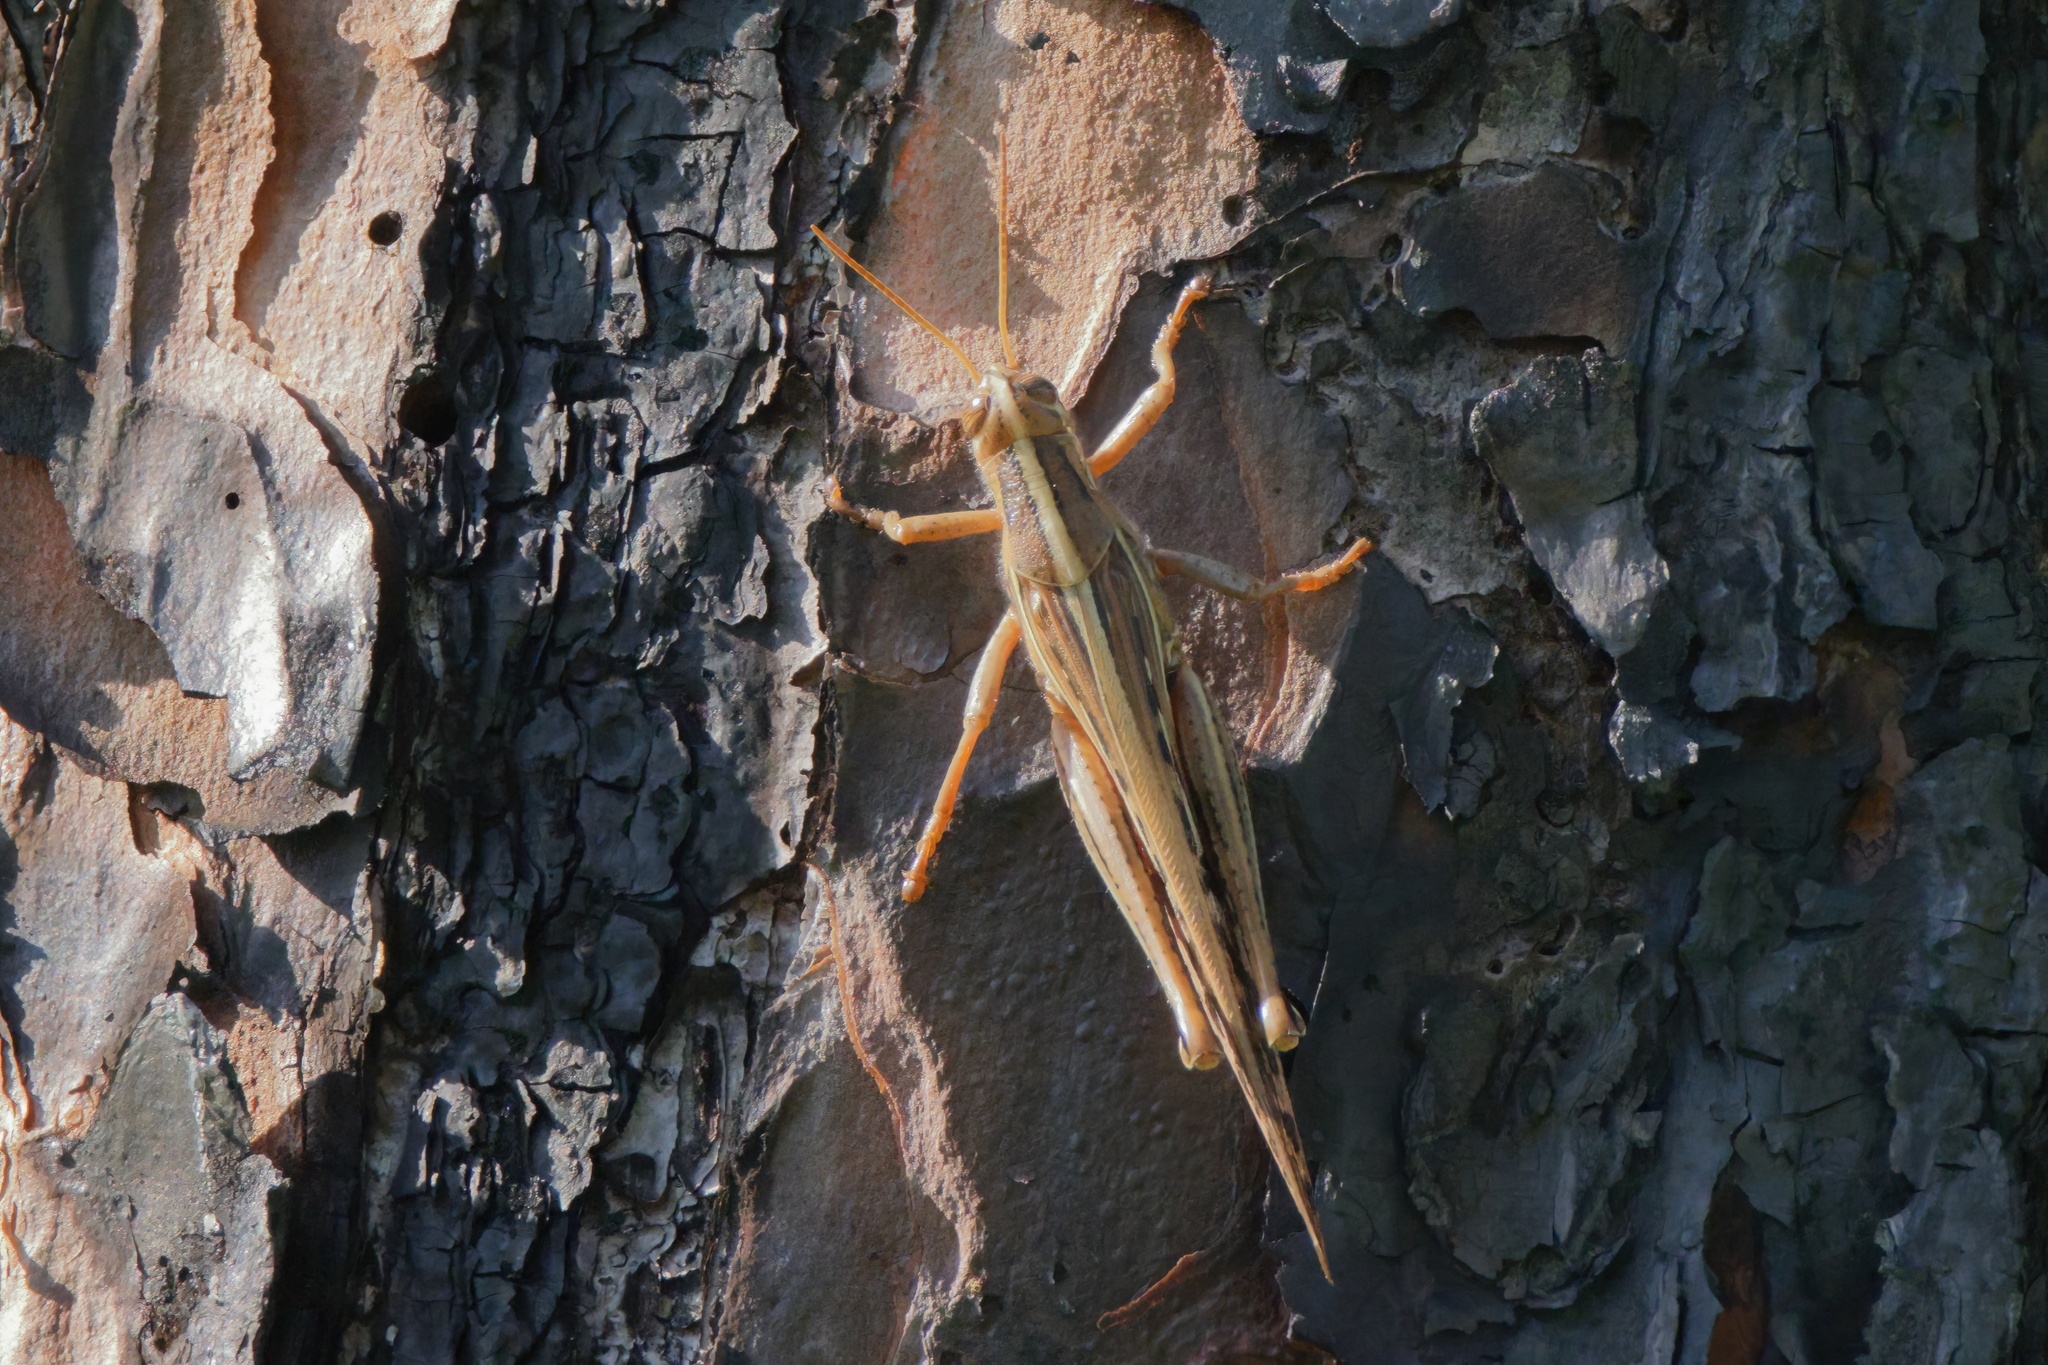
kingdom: Animalia
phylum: Arthropoda
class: Insecta
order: Orthoptera
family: Acrididae
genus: Schistocerca
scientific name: Schistocerca americana
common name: American bird locust
